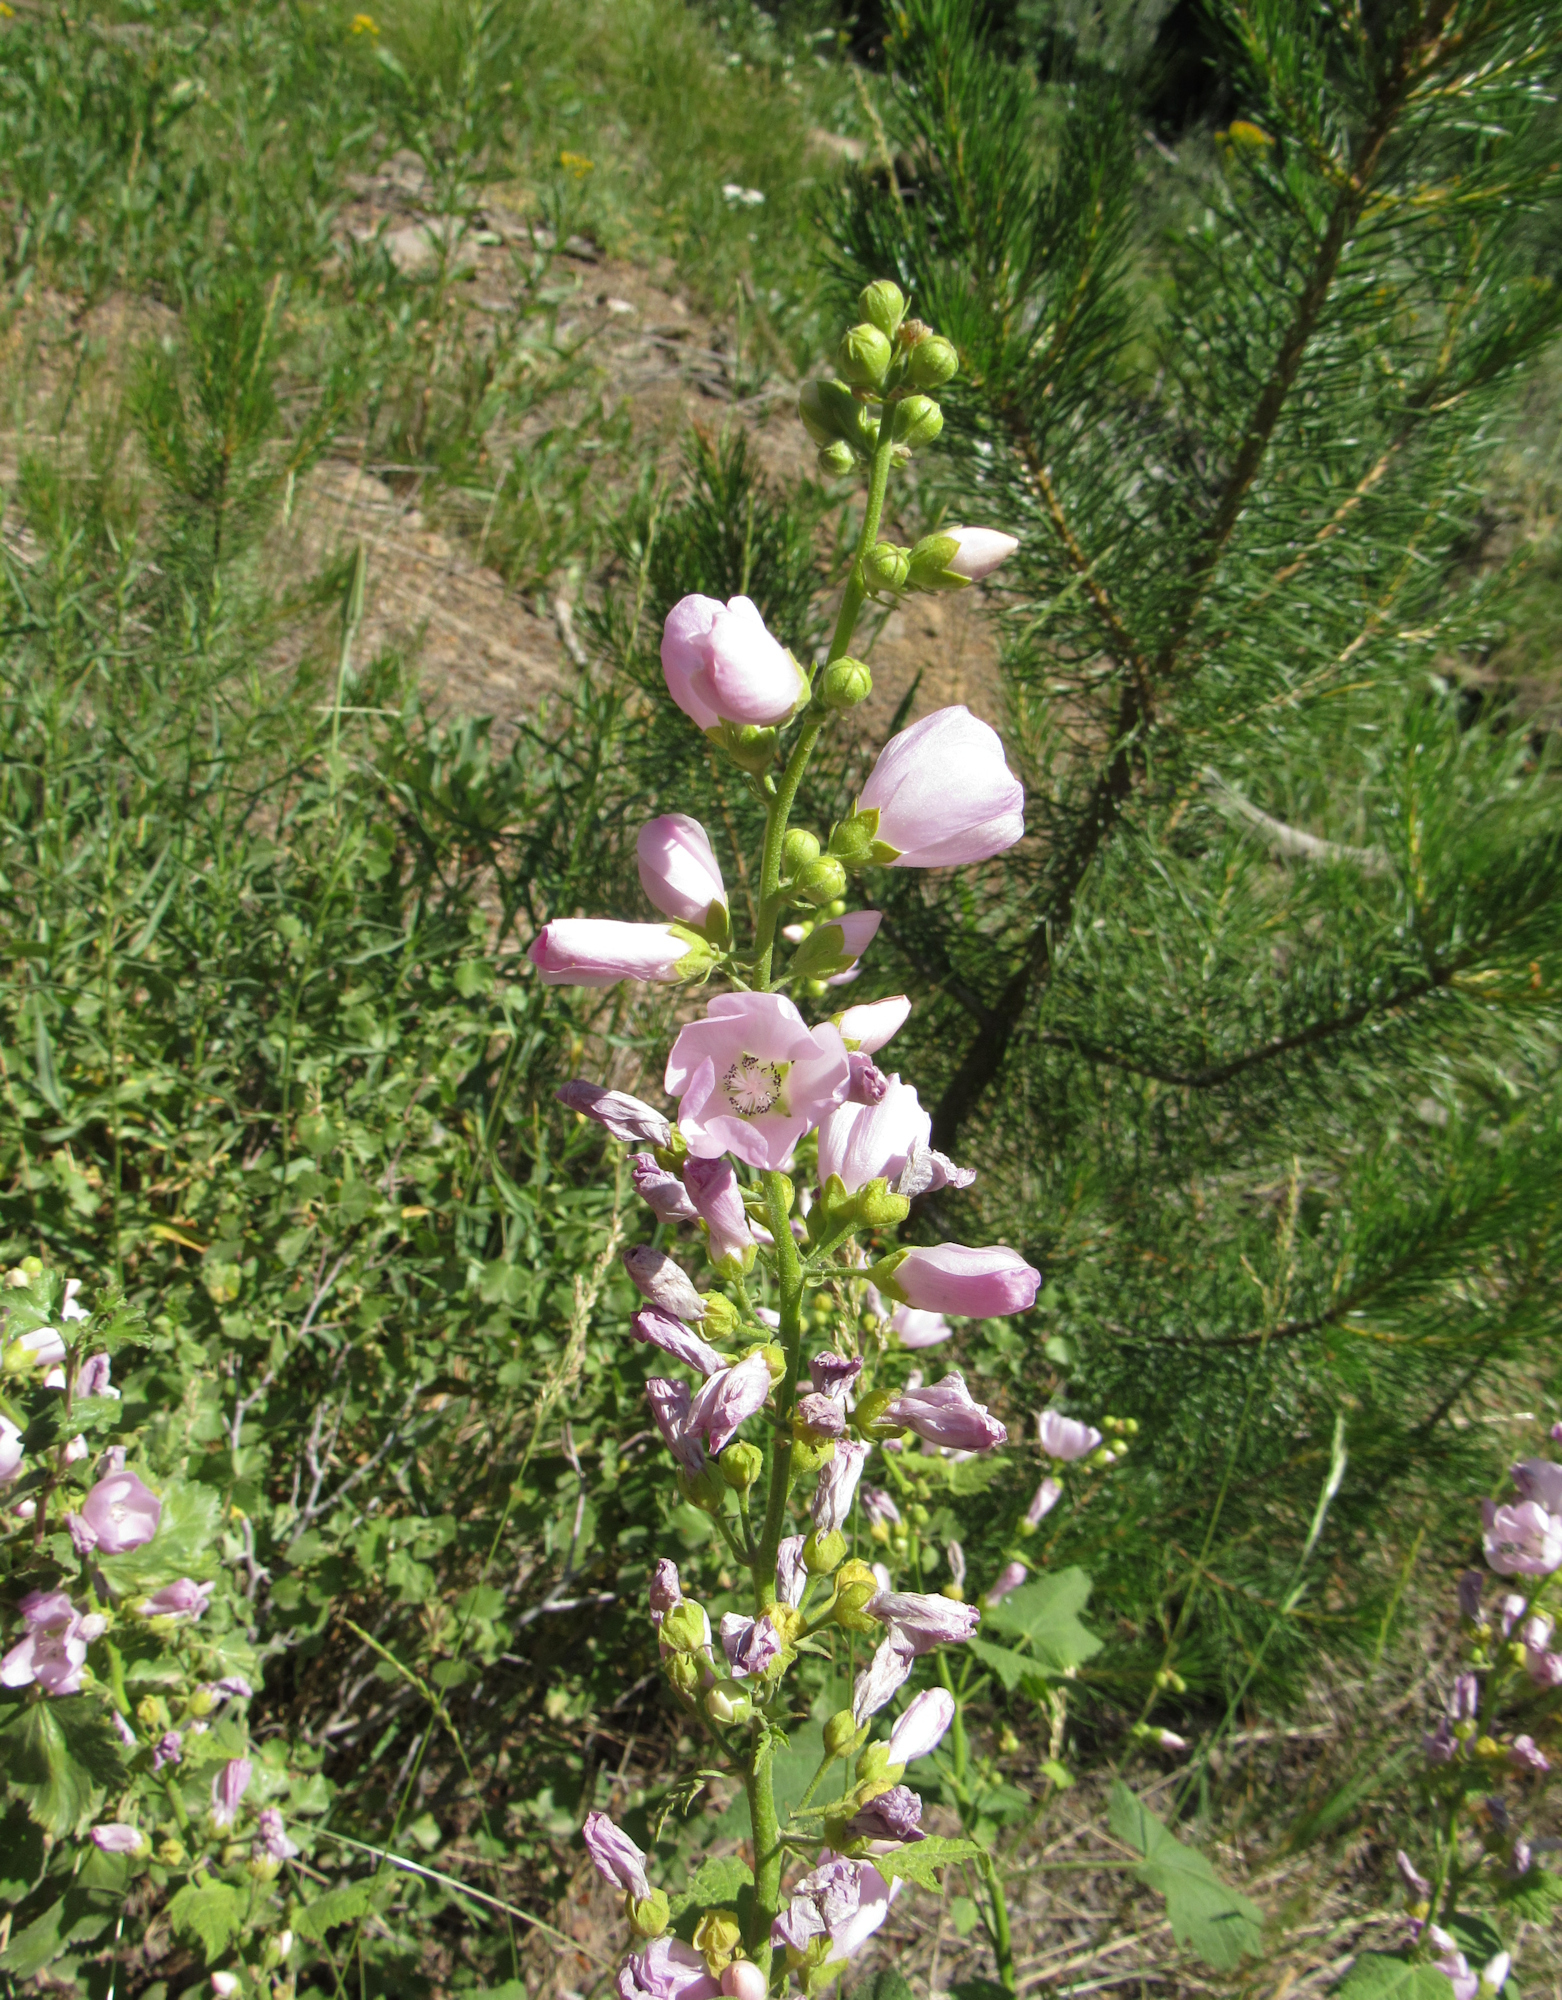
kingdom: Plantae
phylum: Tracheophyta
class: Magnoliopsida
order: Malvales
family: Malvaceae
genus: Iliamna
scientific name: Iliamna rivularis
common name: Wild hollyhock
